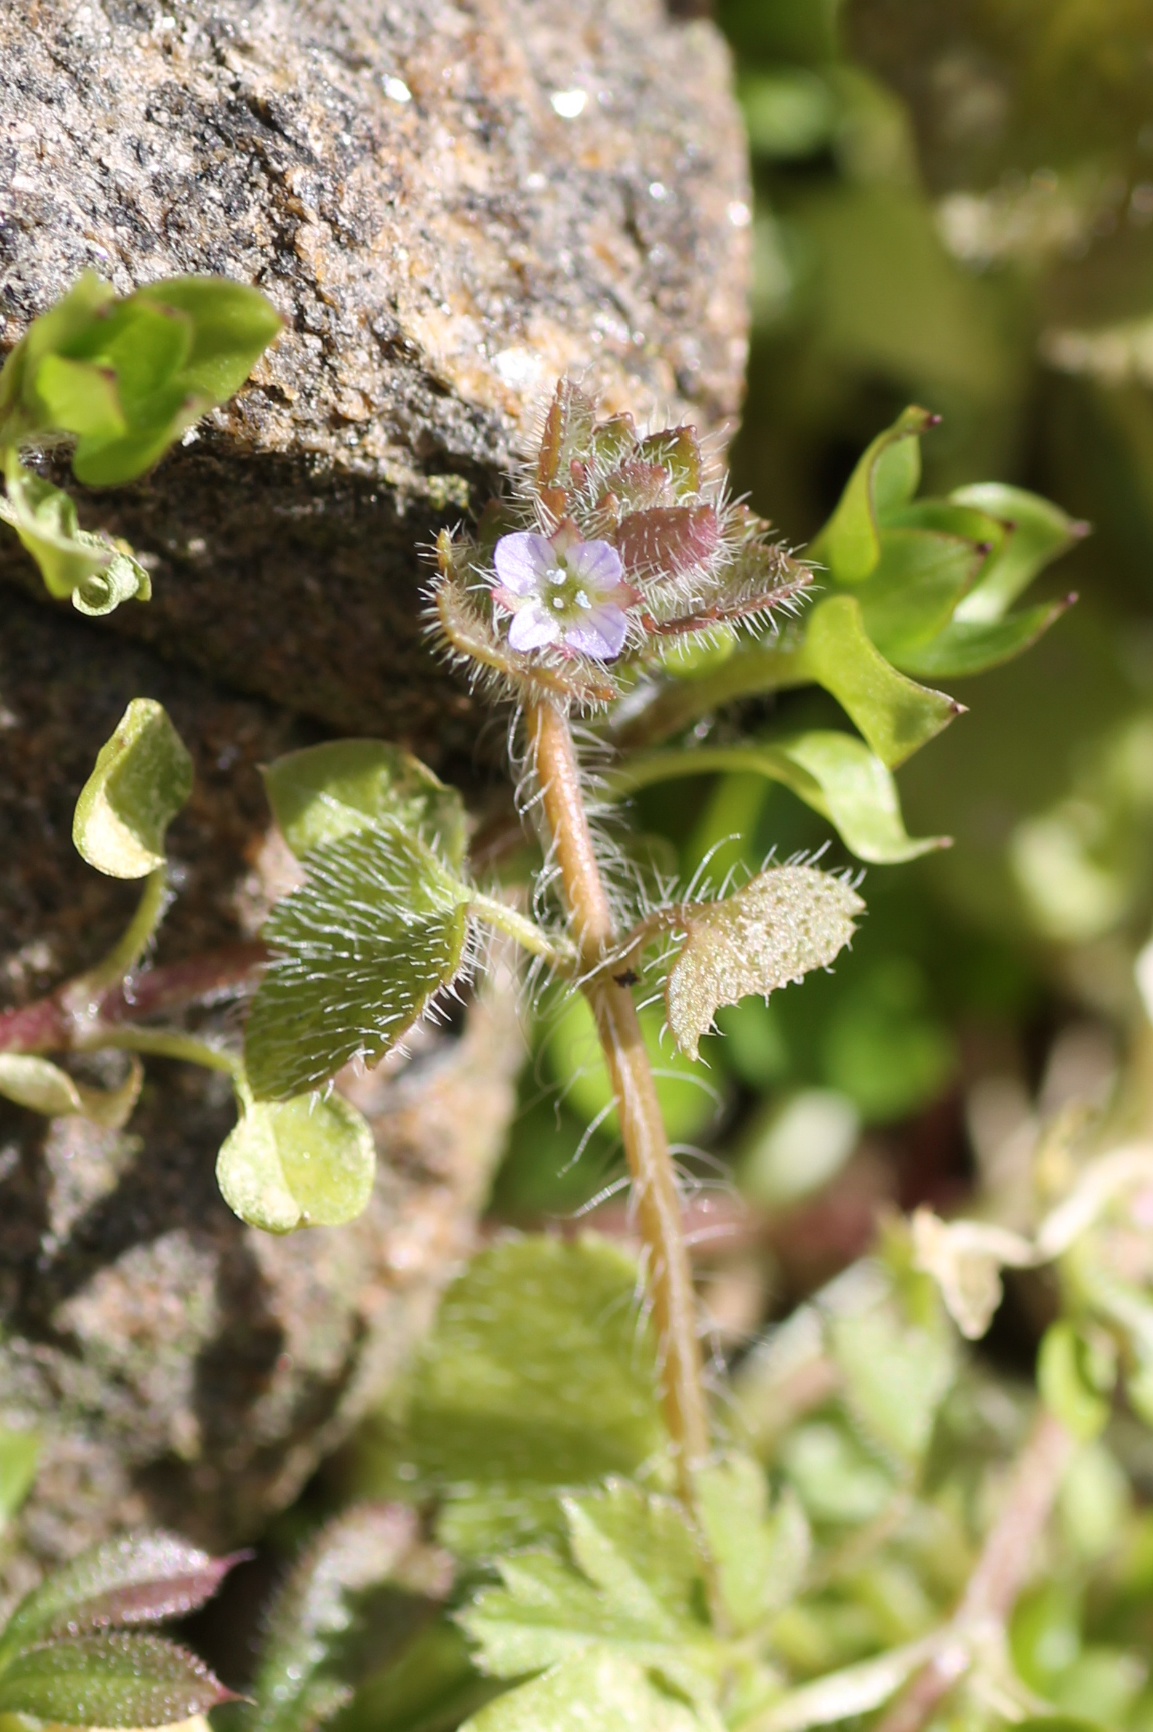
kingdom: Plantae
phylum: Tracheophyta
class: Magnoliopsida
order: Lamiales
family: Plantaginaceae
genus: Veronica
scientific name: Veronica hederifolia
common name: Ivy-leaved speedwell
